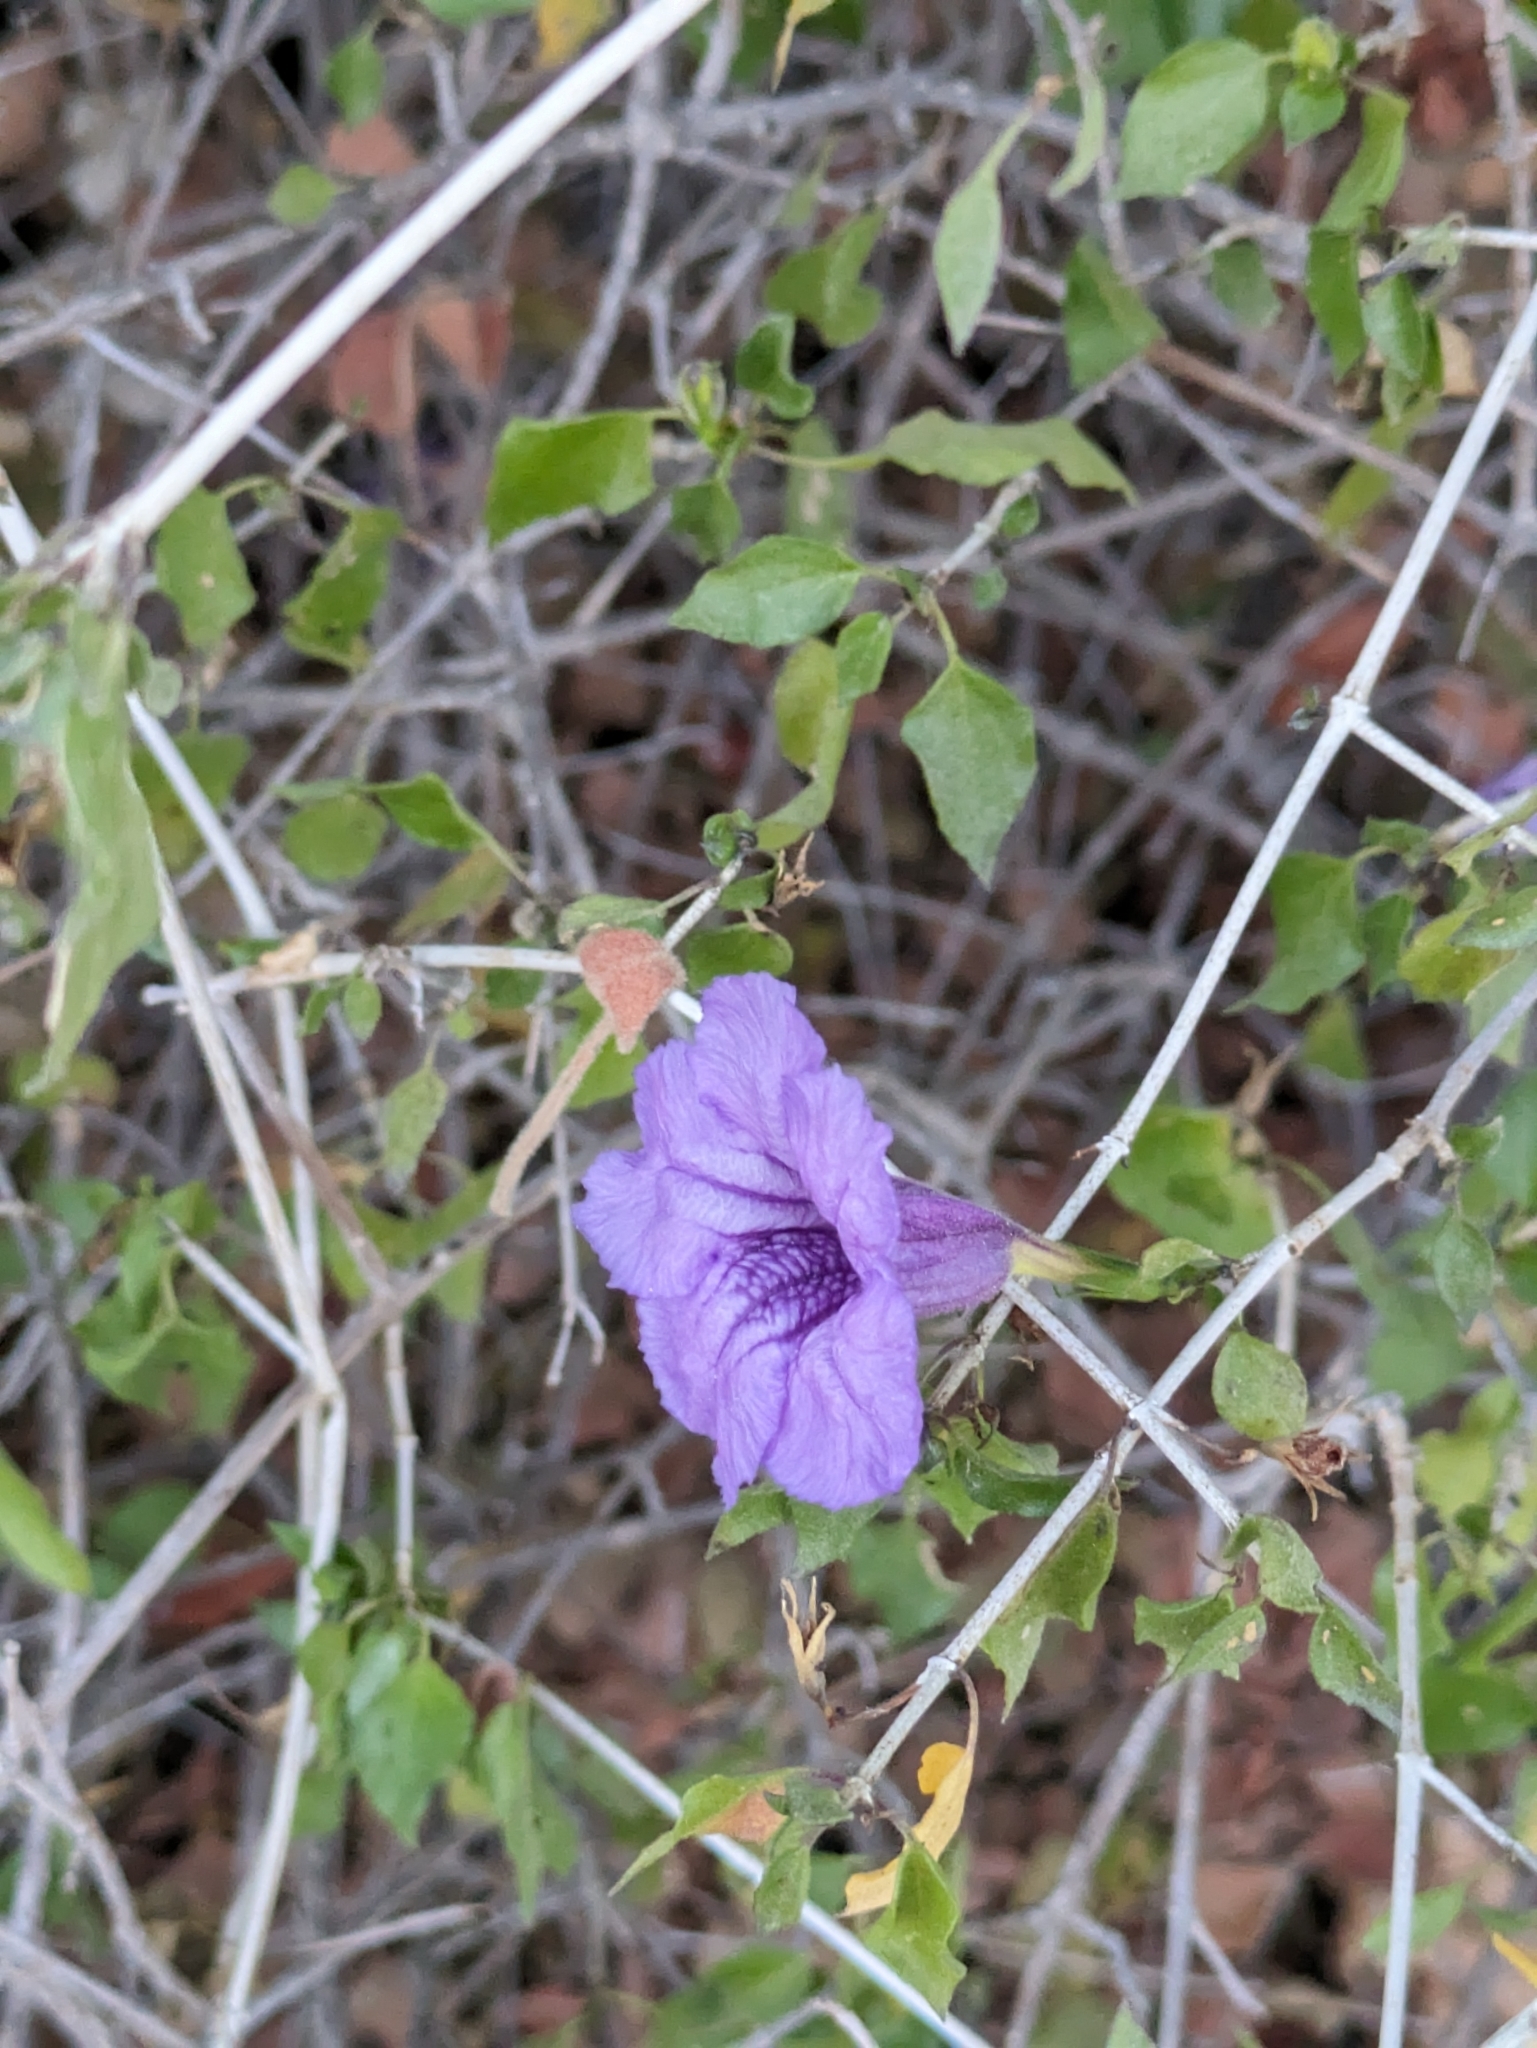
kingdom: Plantae
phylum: Tracheophyta
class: Magnoliopsida
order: Lamiales
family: Acanthaceae
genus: Ruellia
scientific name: Ruellia californica
